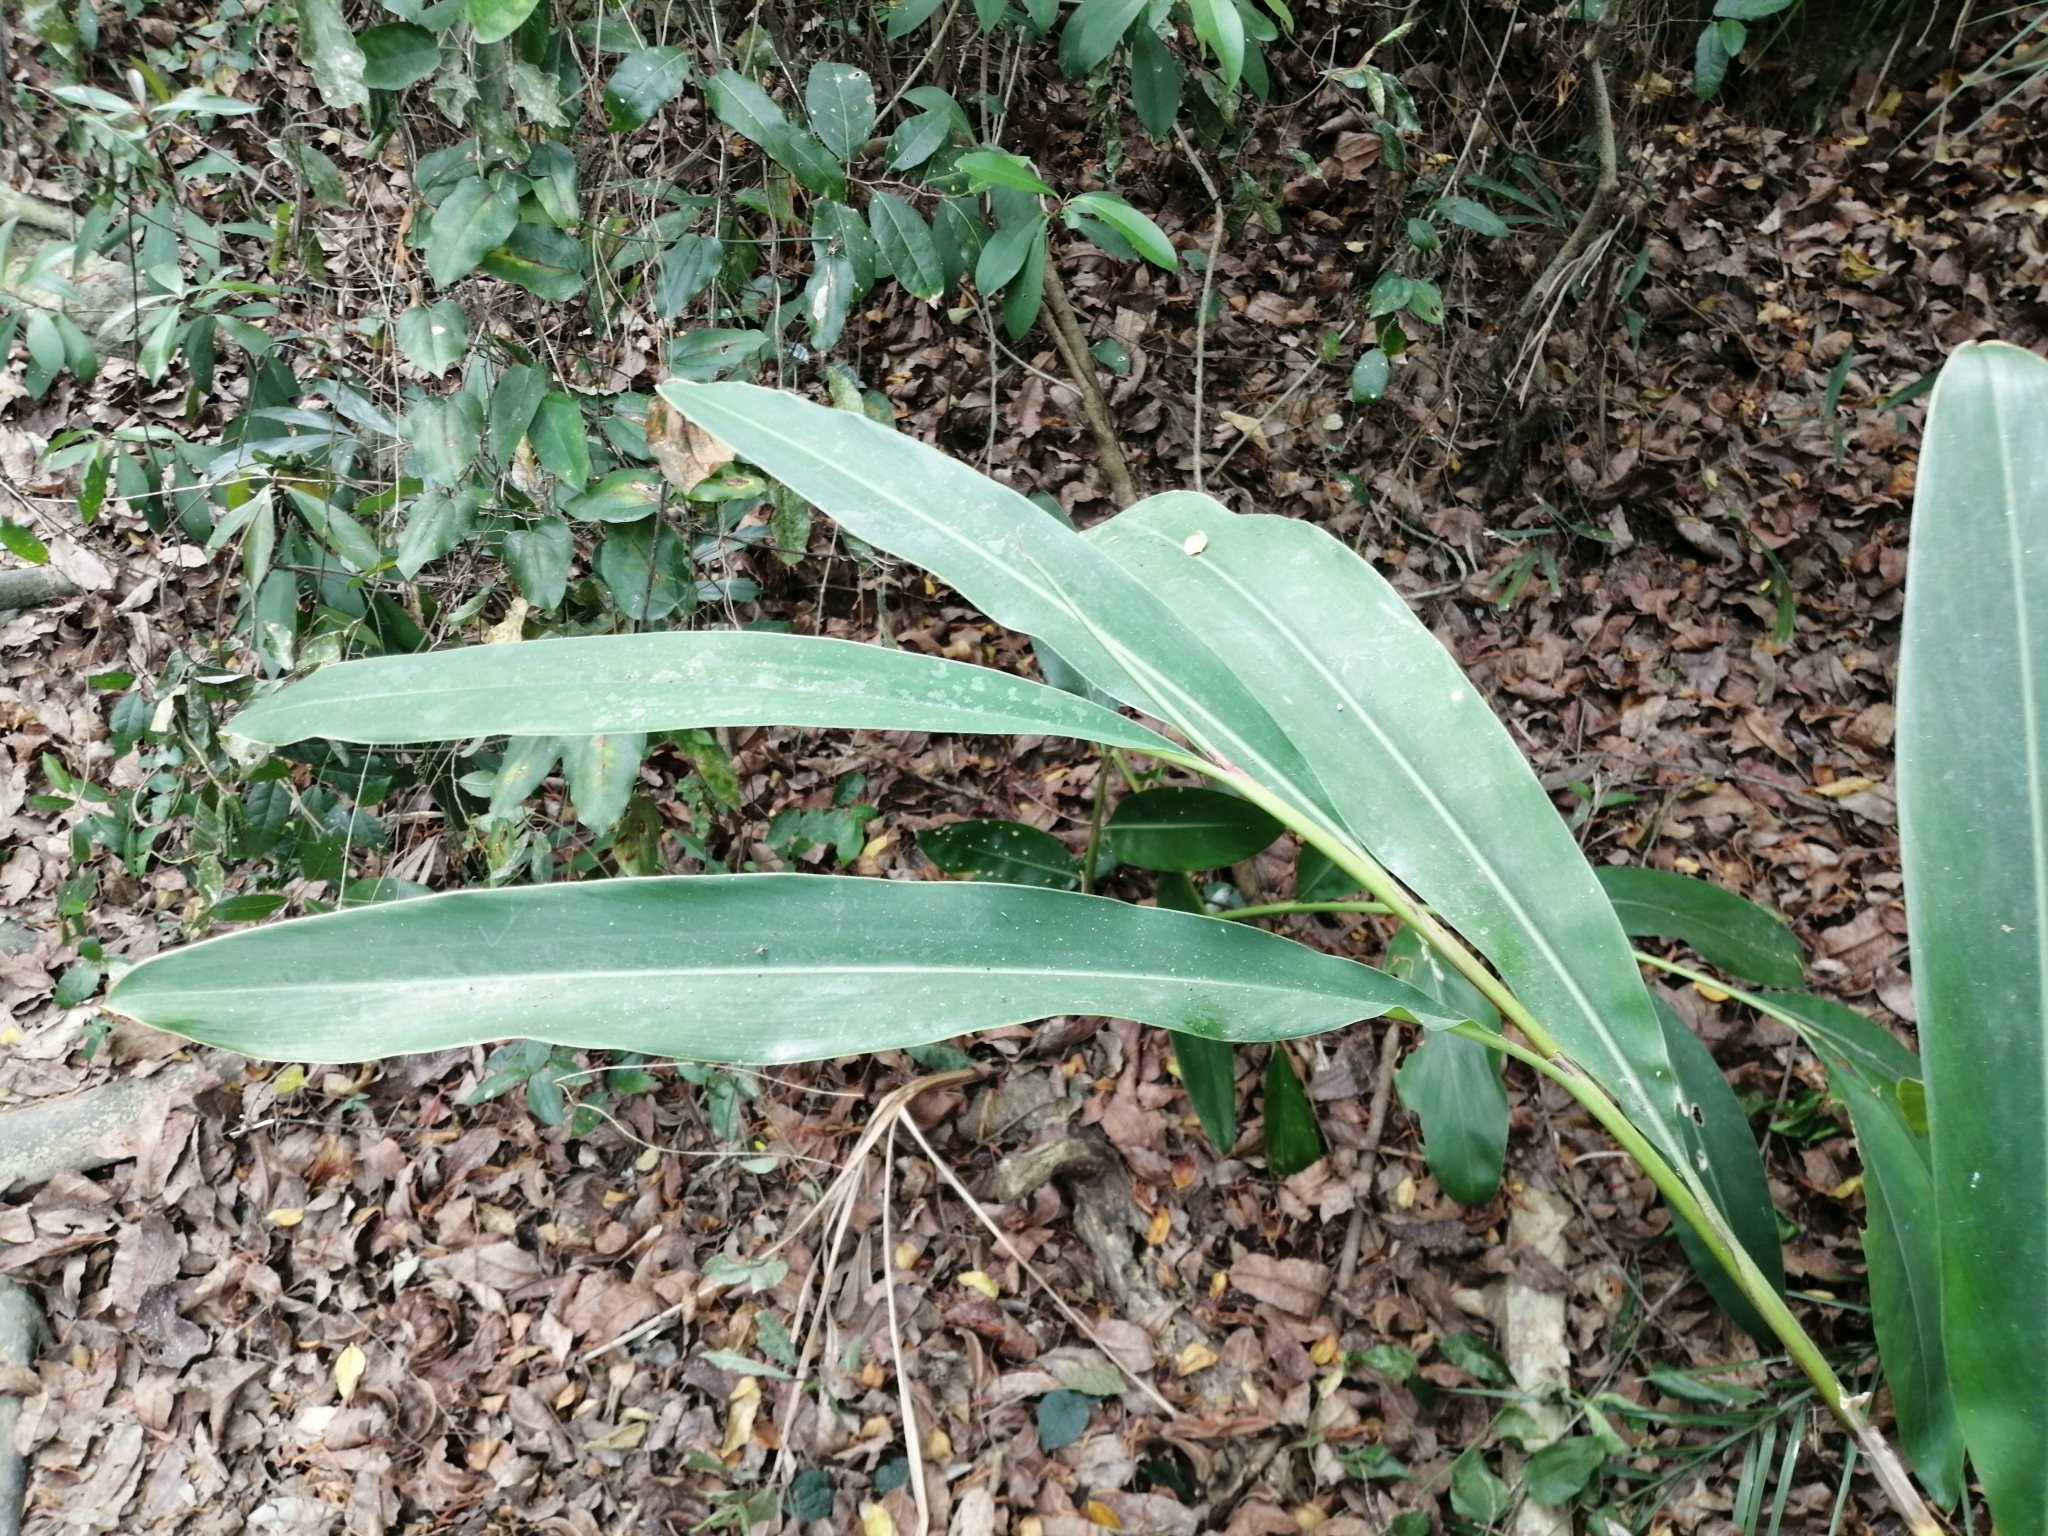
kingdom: Plantae
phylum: Tracheophyta
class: Liliopsida
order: Zingiberales
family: Zingiberaceae
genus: Alpinia
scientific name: Alpinia zerumbet
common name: Shellplant
